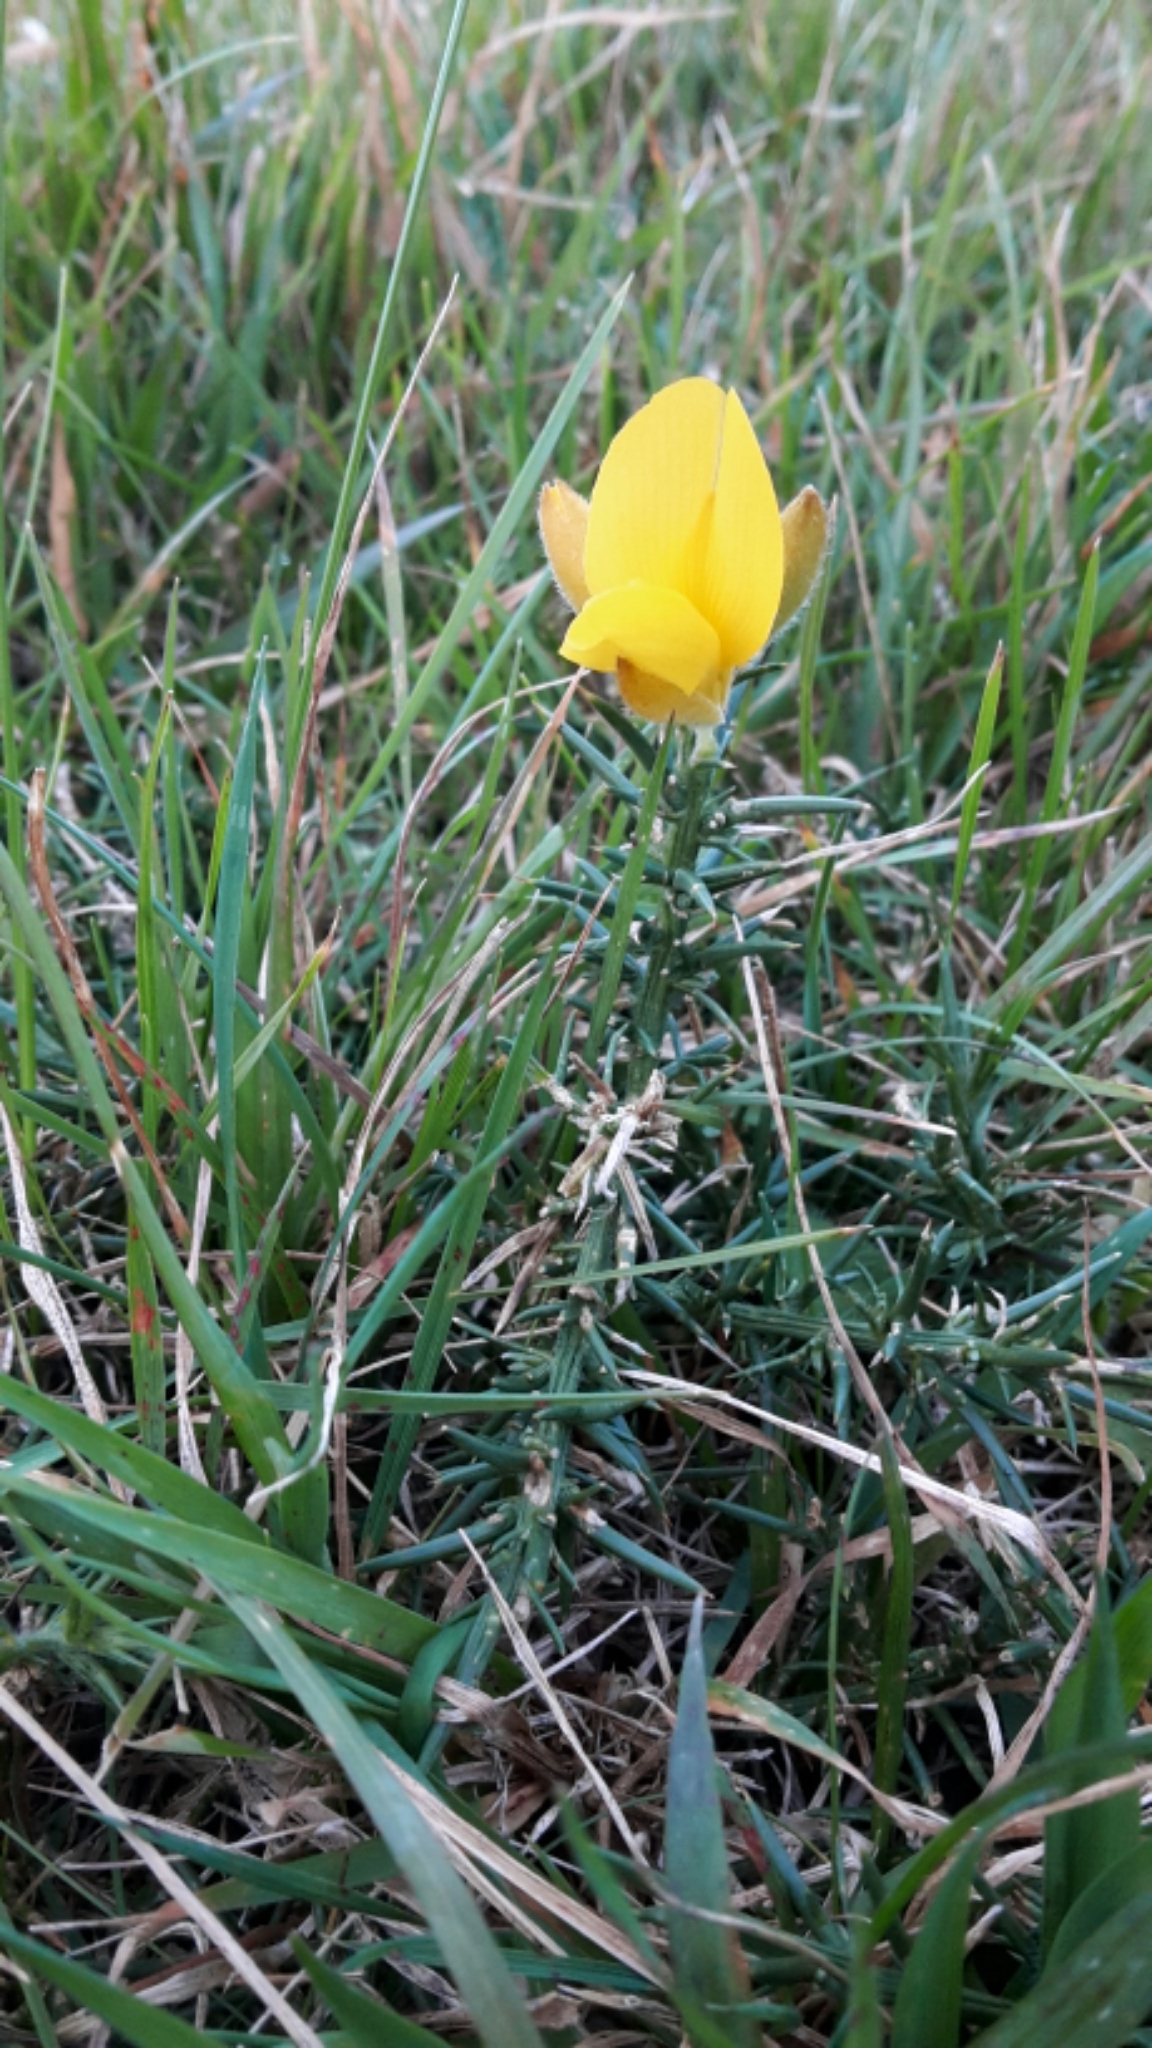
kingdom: Plantae
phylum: Tracheophyta
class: Magnoliopsida
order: Fabales
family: Fabaceae
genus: Ulex
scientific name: Ulex europaeus
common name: Common gorse
